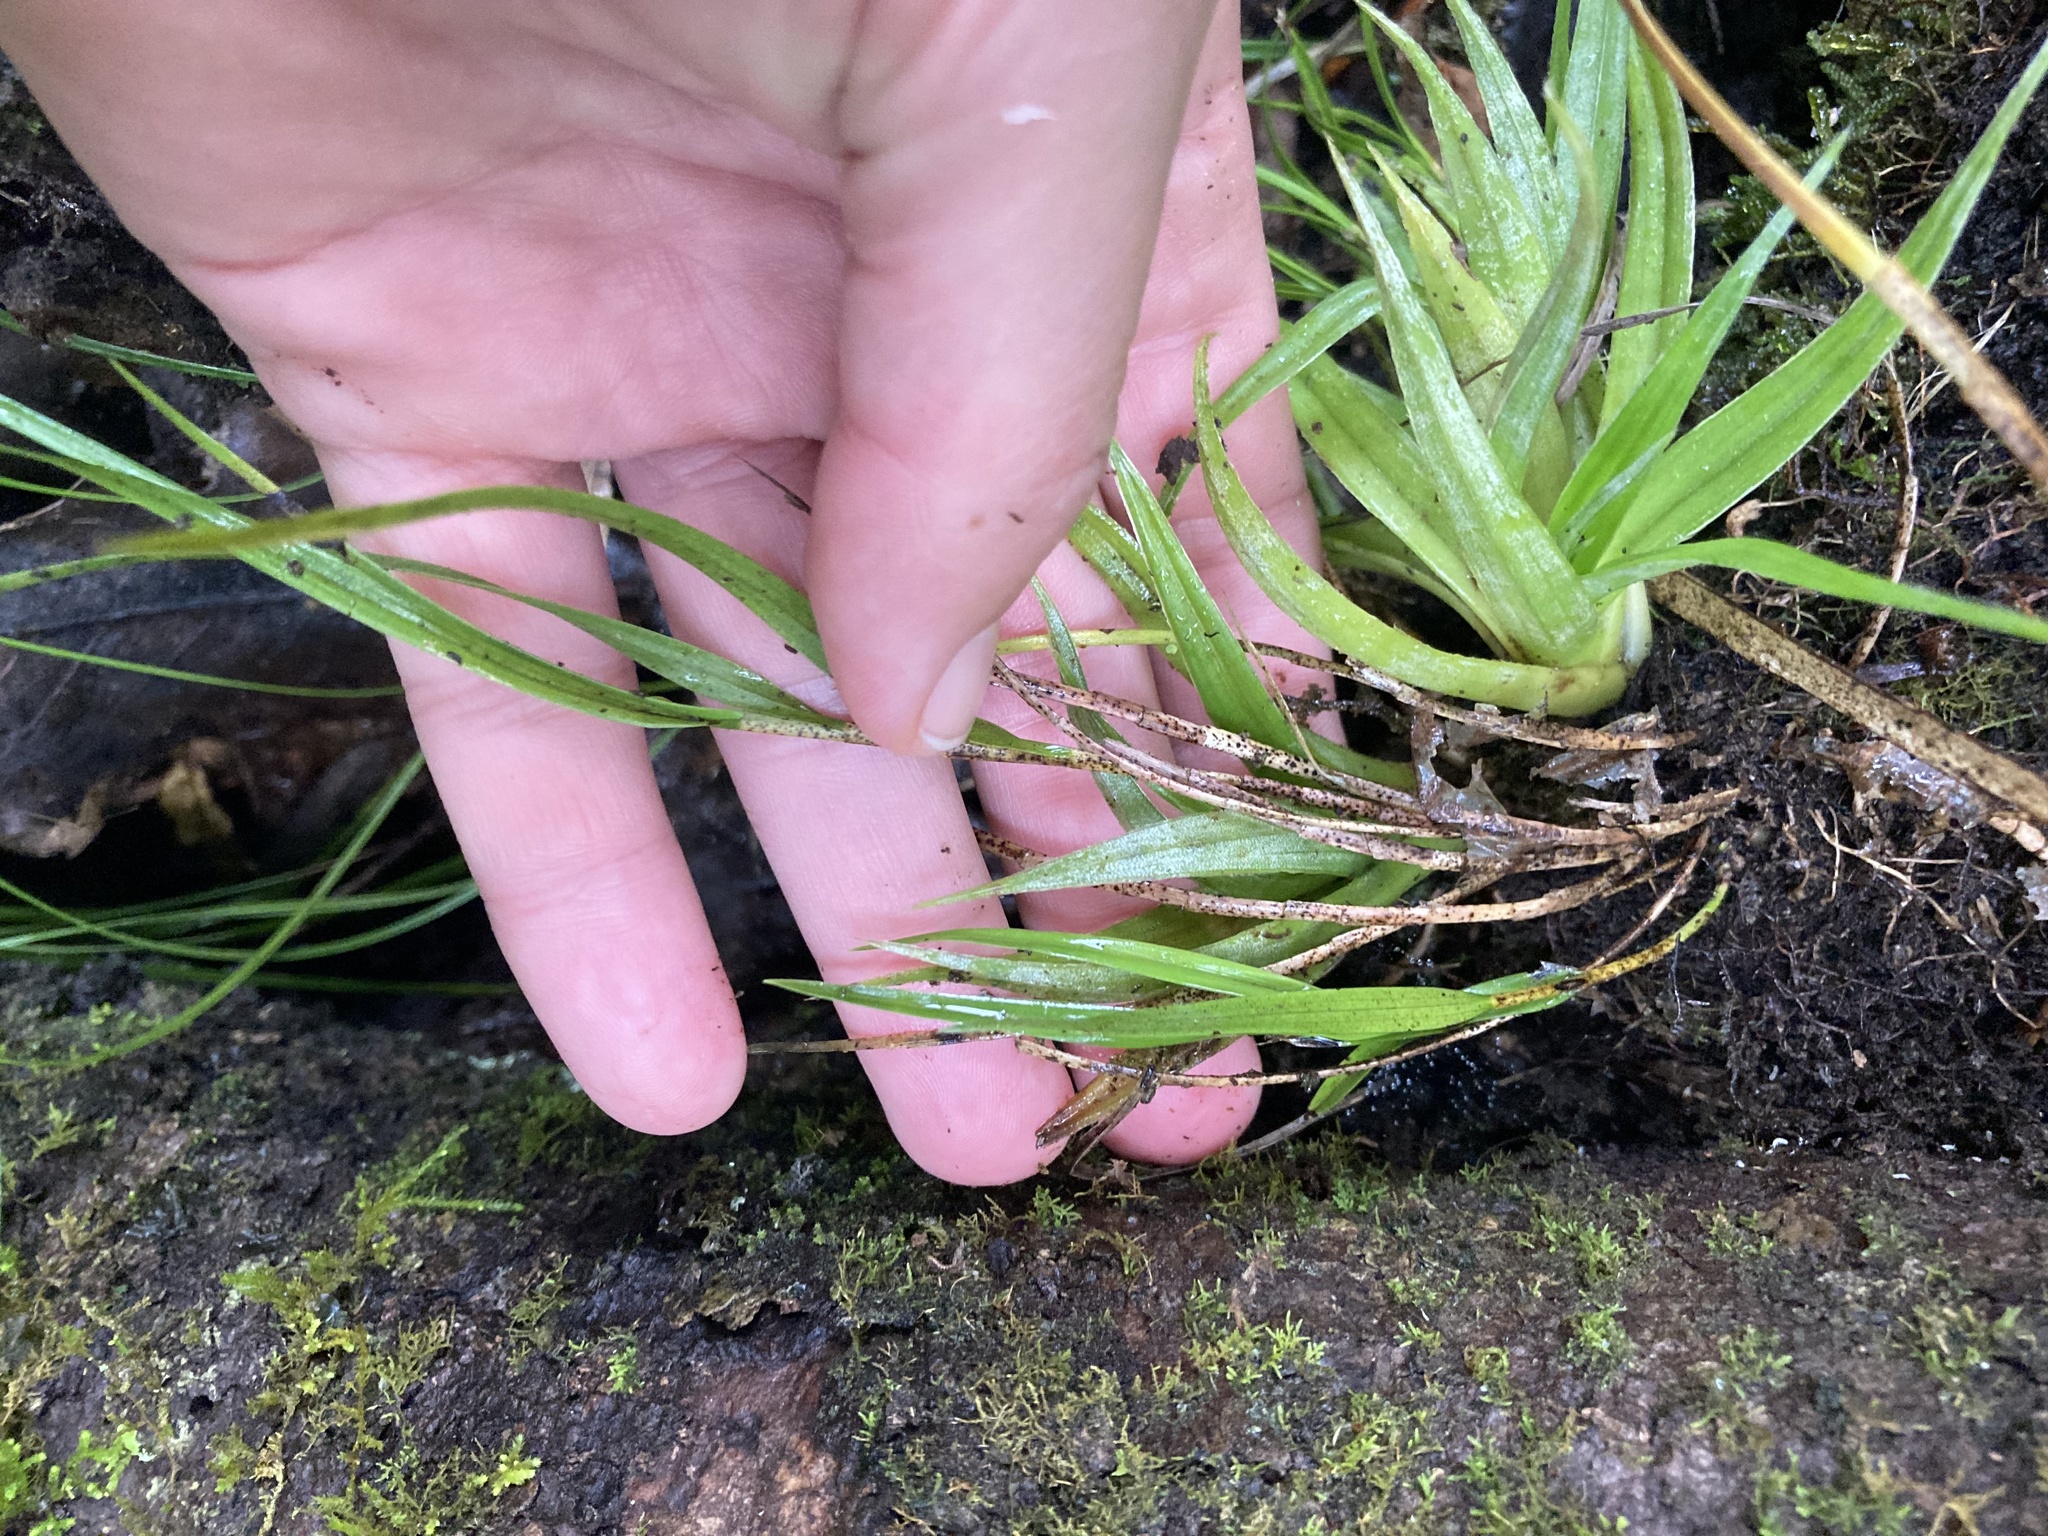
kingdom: Plantae
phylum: Tracheophyta
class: Liliopsida
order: Asparagales
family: Orchidaceae
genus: Earina
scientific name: Earina mucronata
